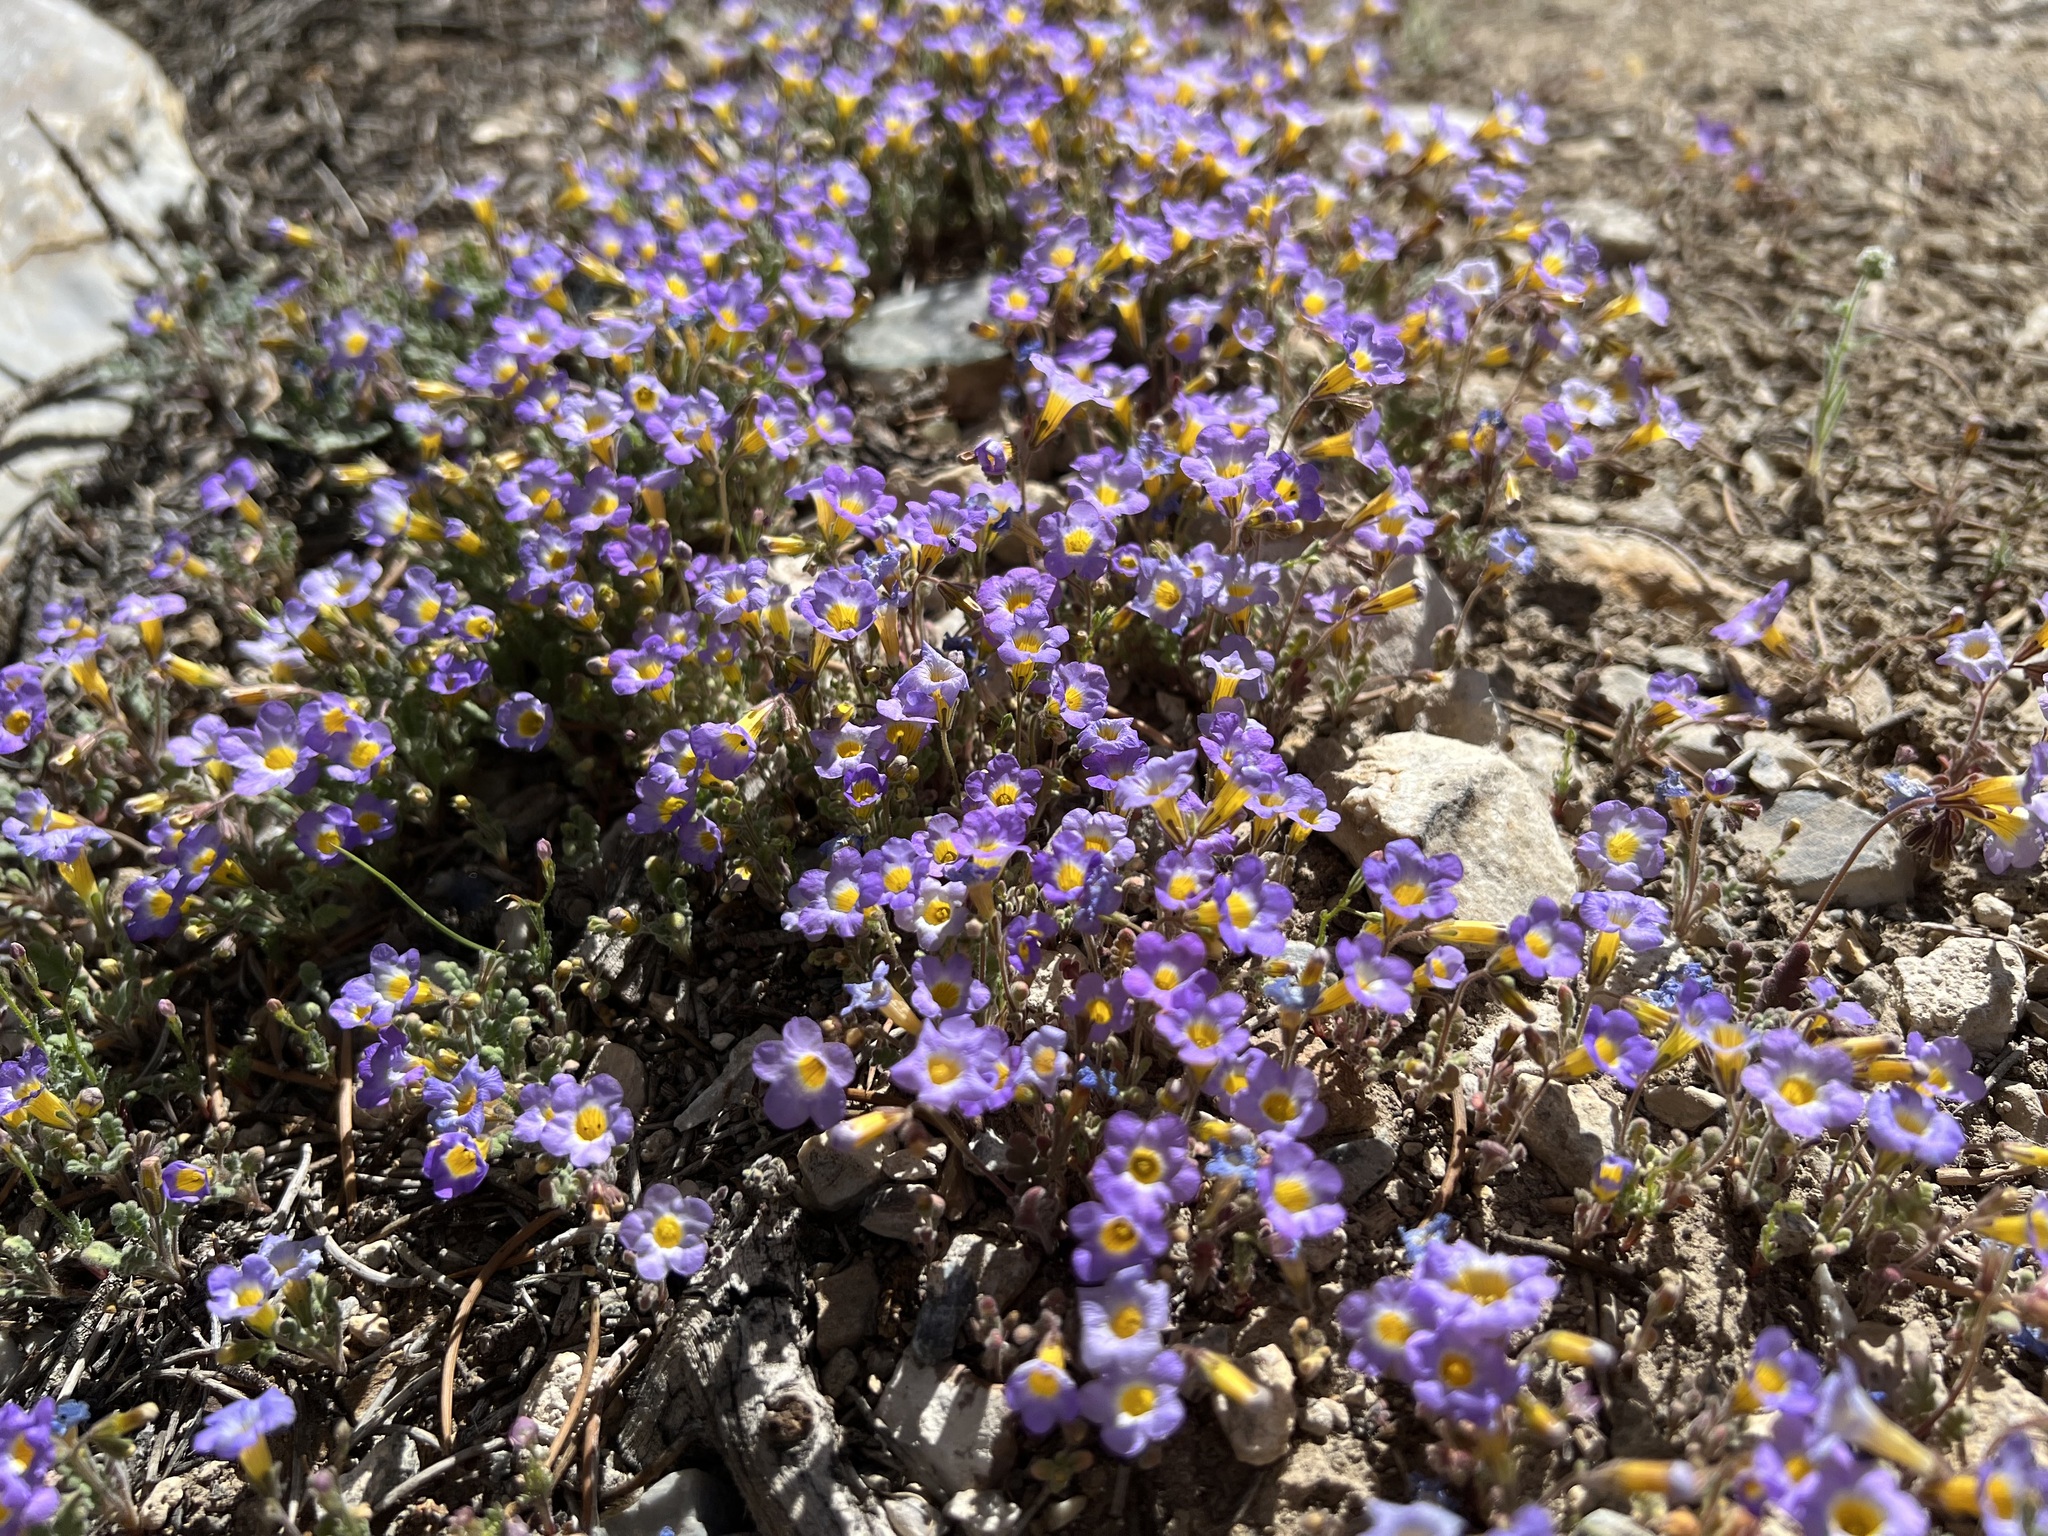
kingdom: Plantae
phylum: Tracheophyta
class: Magnoliopsida
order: Boraginales
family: Hydrophyllaceae
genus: Phacelia
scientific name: Phacelia fremontii
